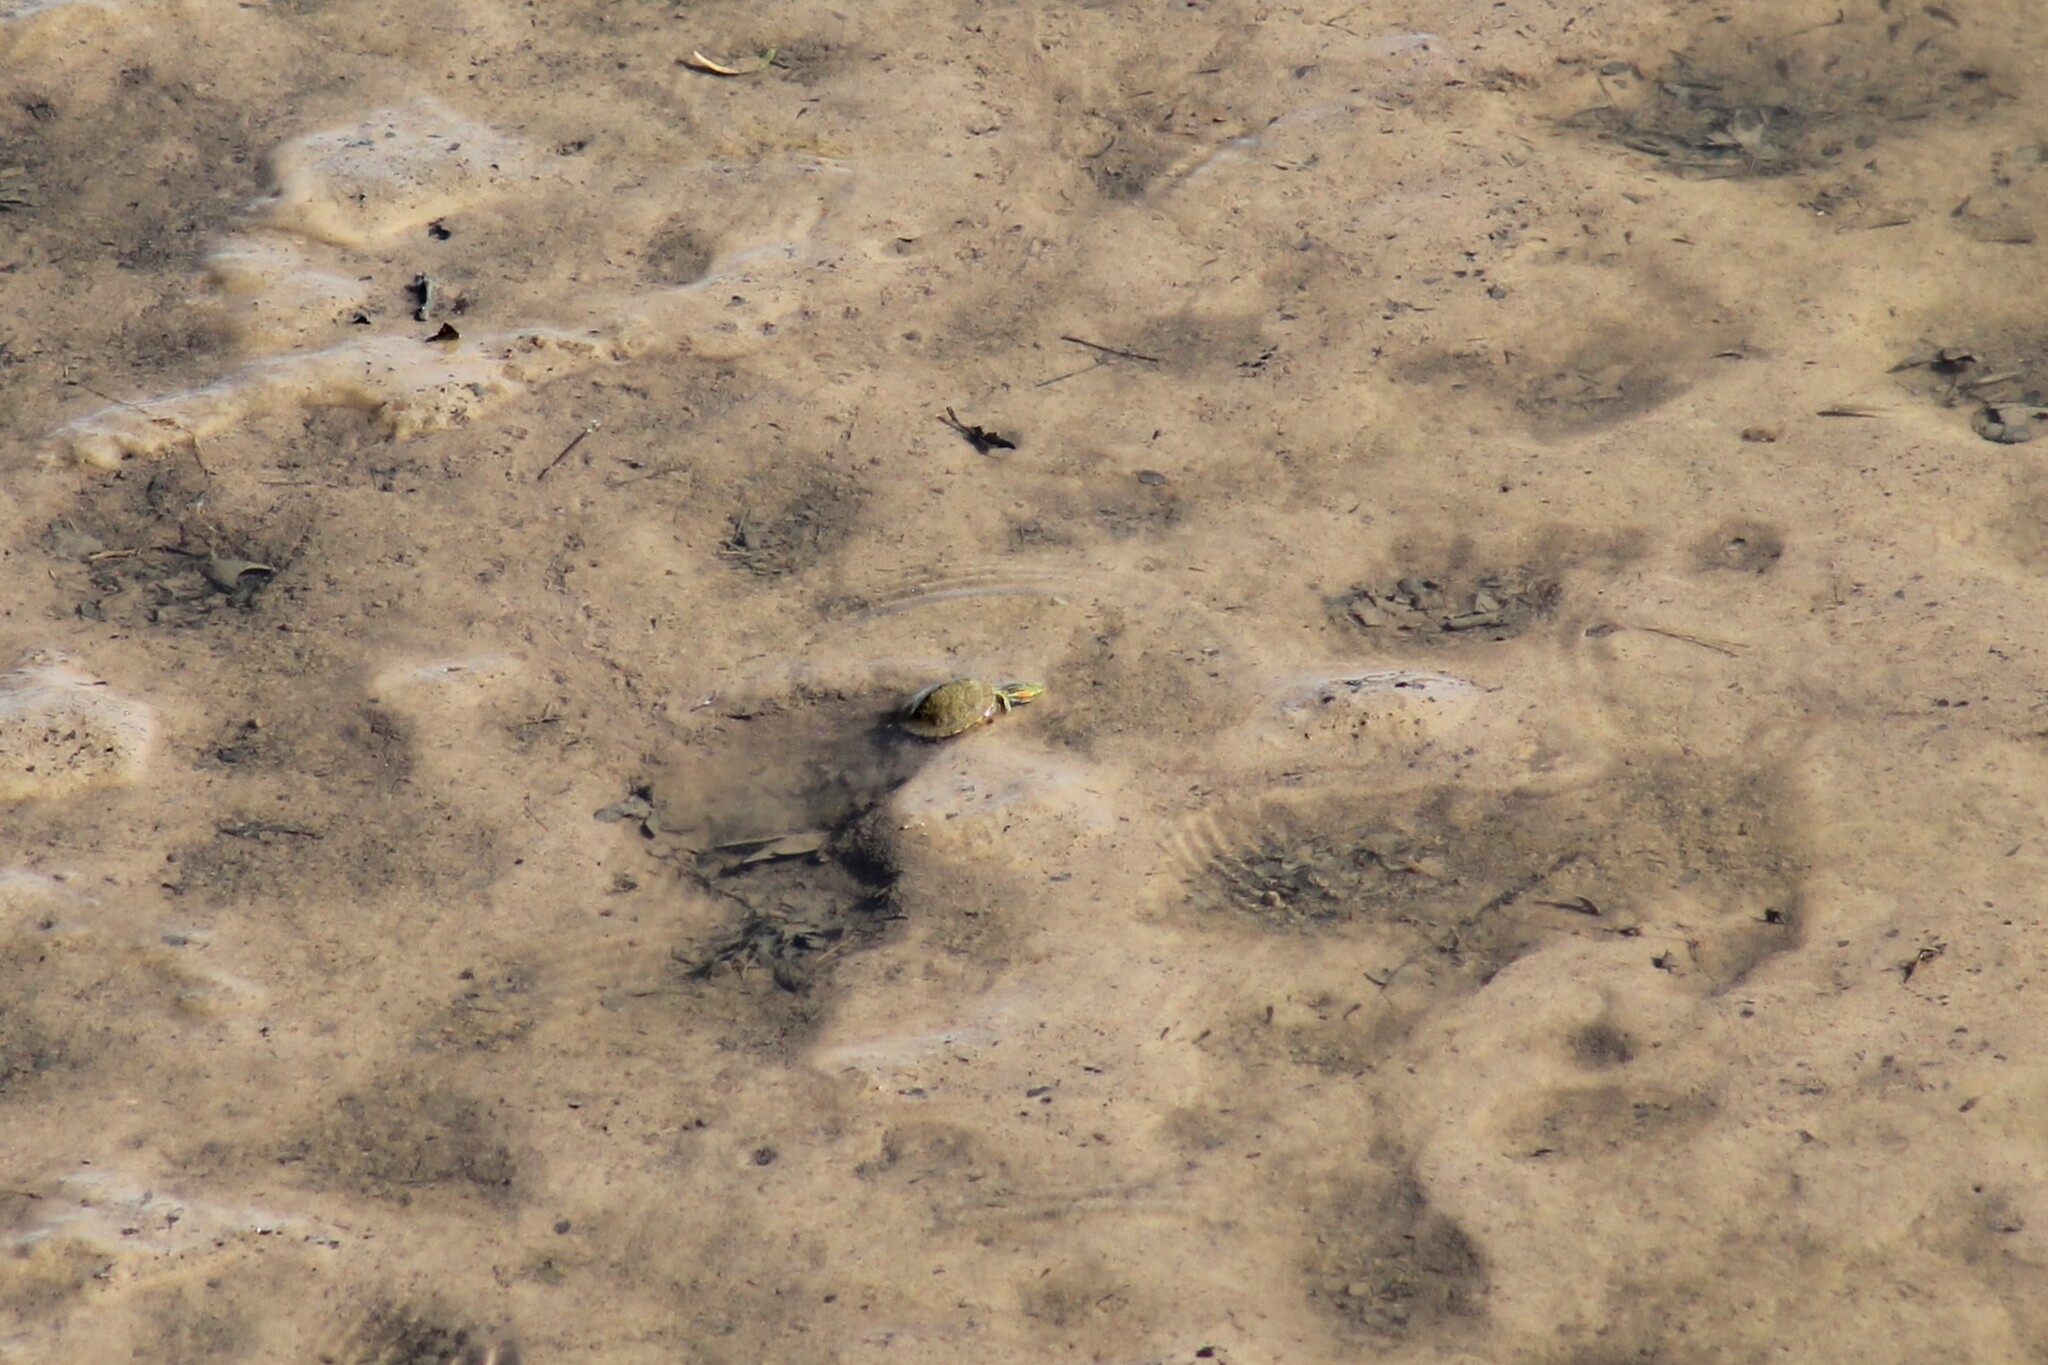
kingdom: Animalia
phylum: Chordata
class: Testudines
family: Emydidae
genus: Trachemys
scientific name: Trachemys scripta
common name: Slider
